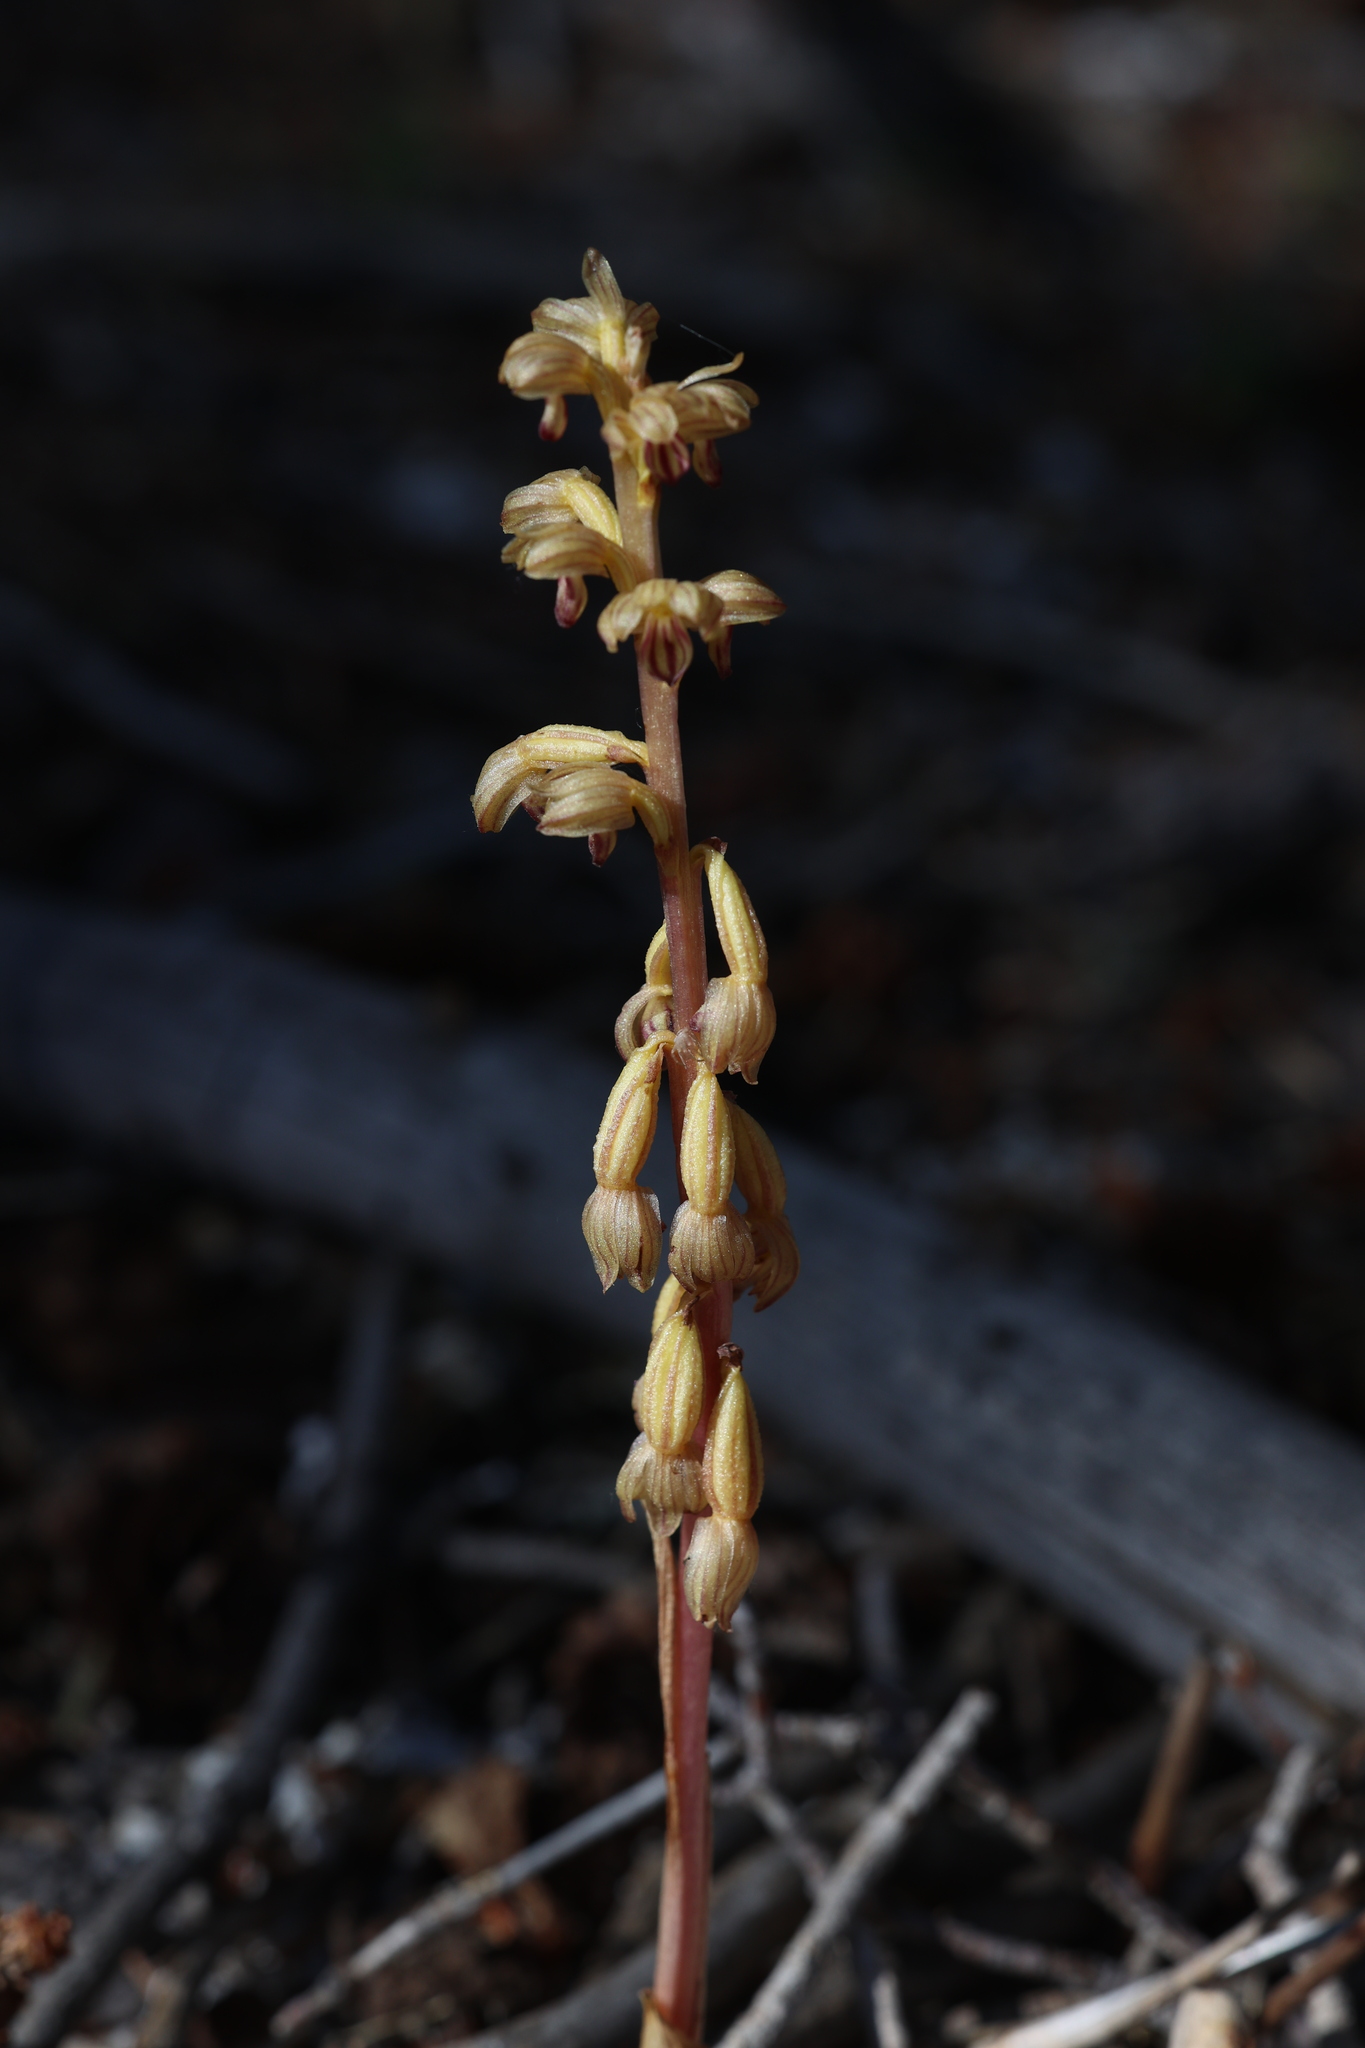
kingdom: Plantae
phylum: Tracheophyta
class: Liliopsida
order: Asparagales
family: Orchidaceae
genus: Corallorhiza
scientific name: Corallorhiza striata
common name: Hooded coralroot
